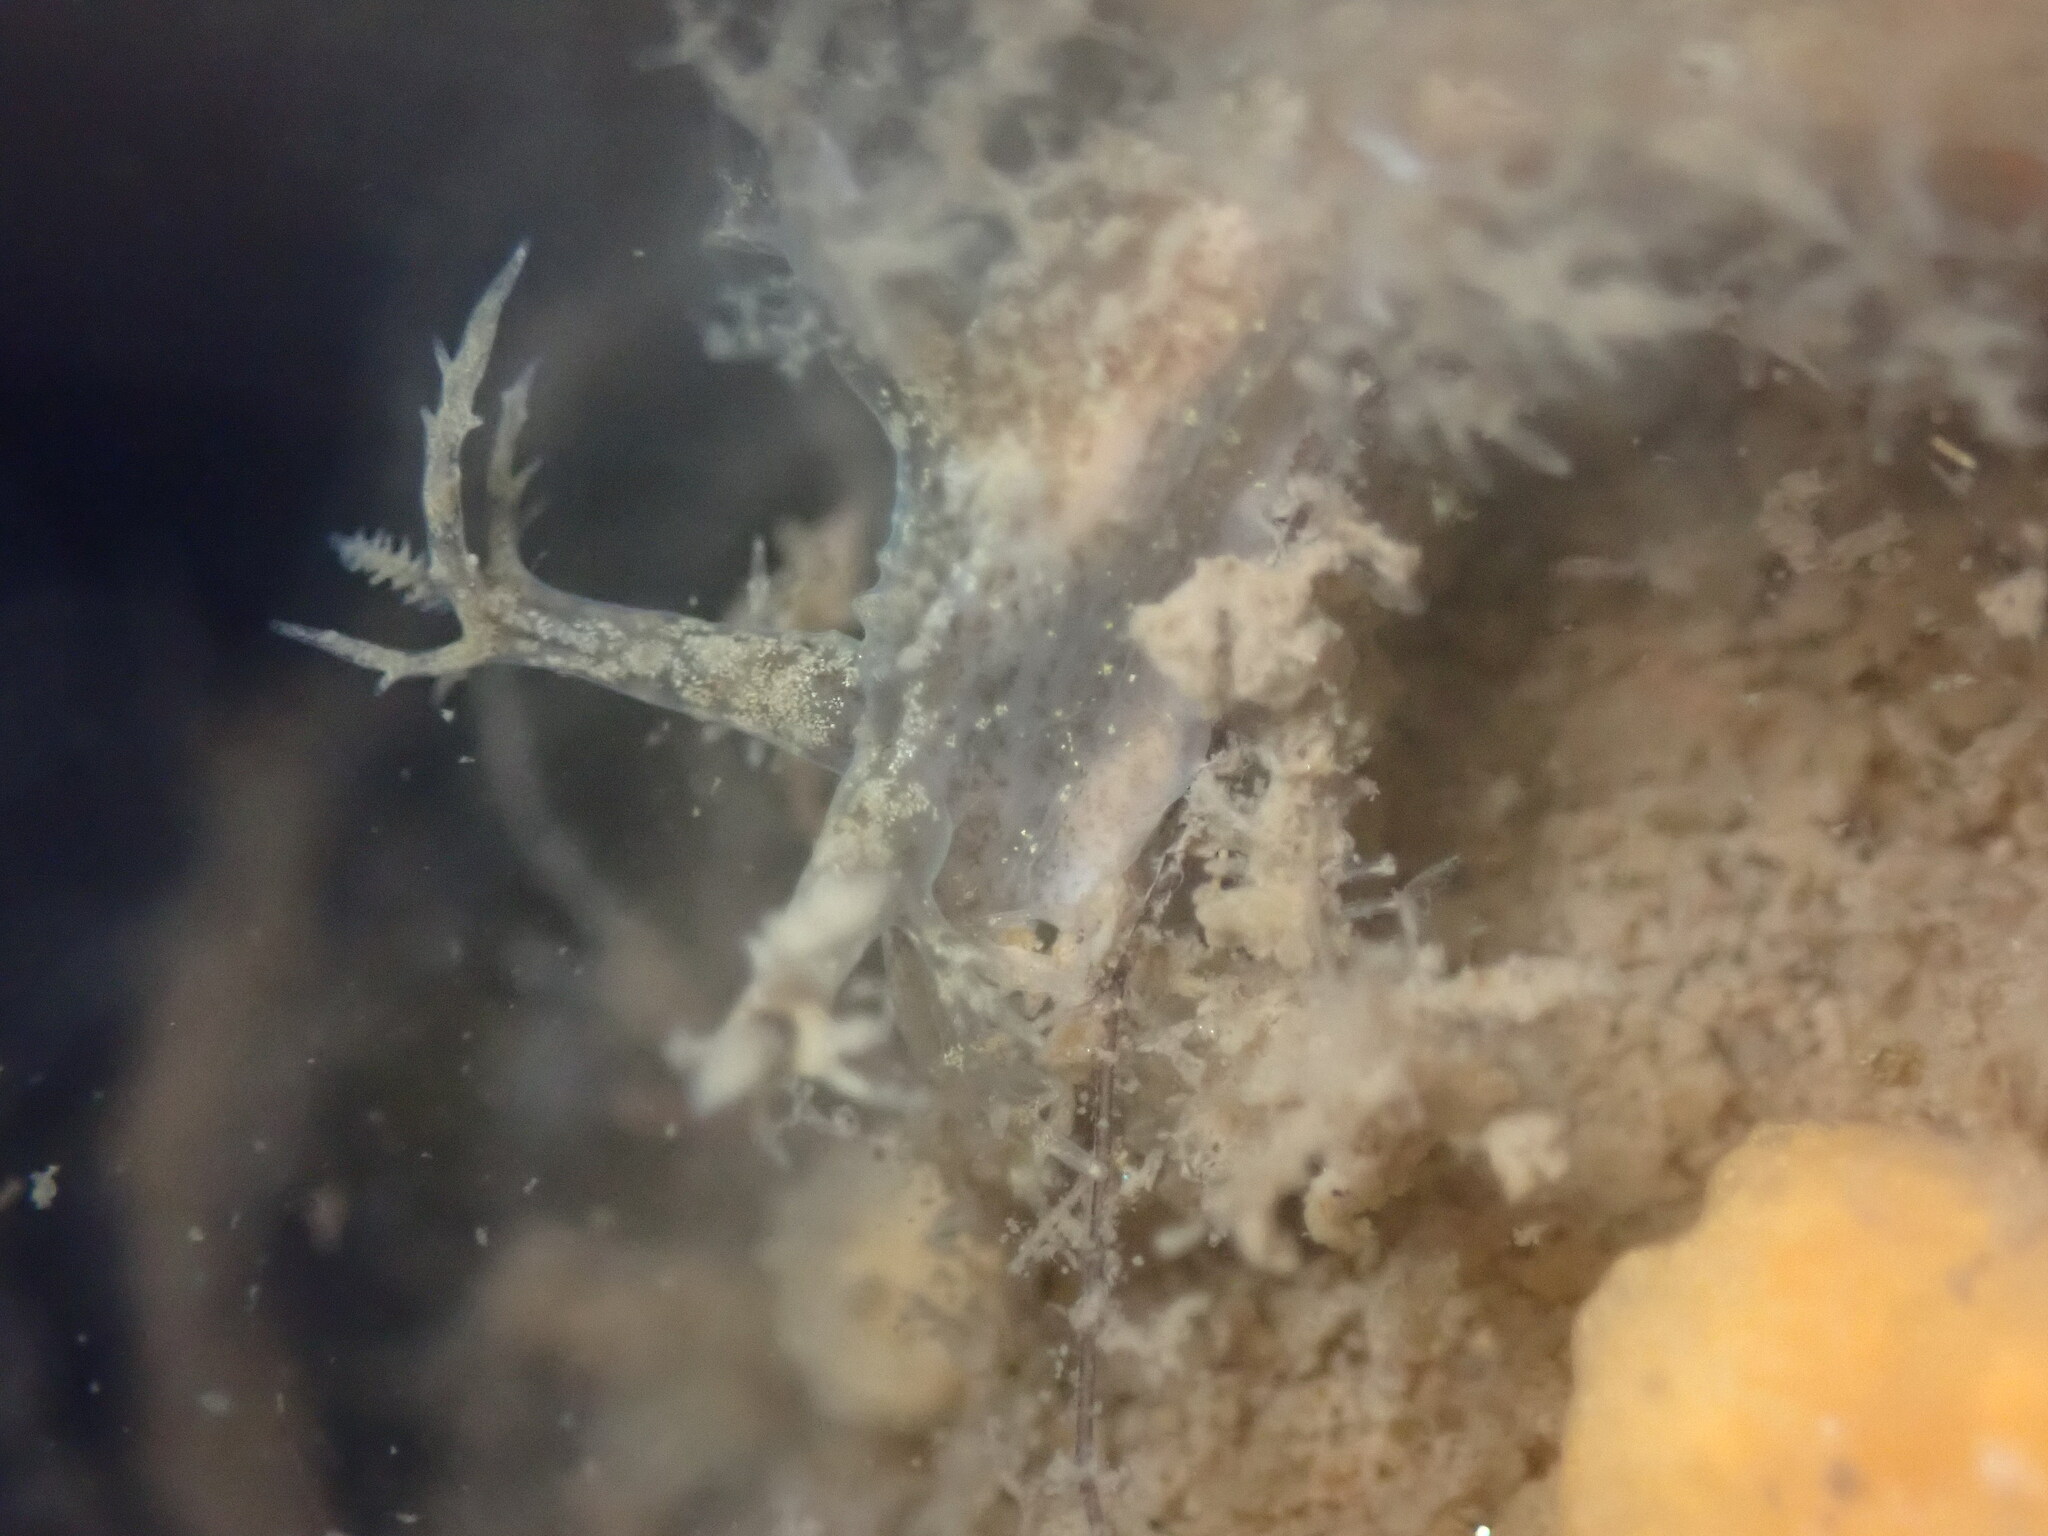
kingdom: Animalia
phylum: Mollusca
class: Gastropoda
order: Nudibranchia
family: Dendronotidae
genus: Dendronotus
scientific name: Dendronotus venustus
